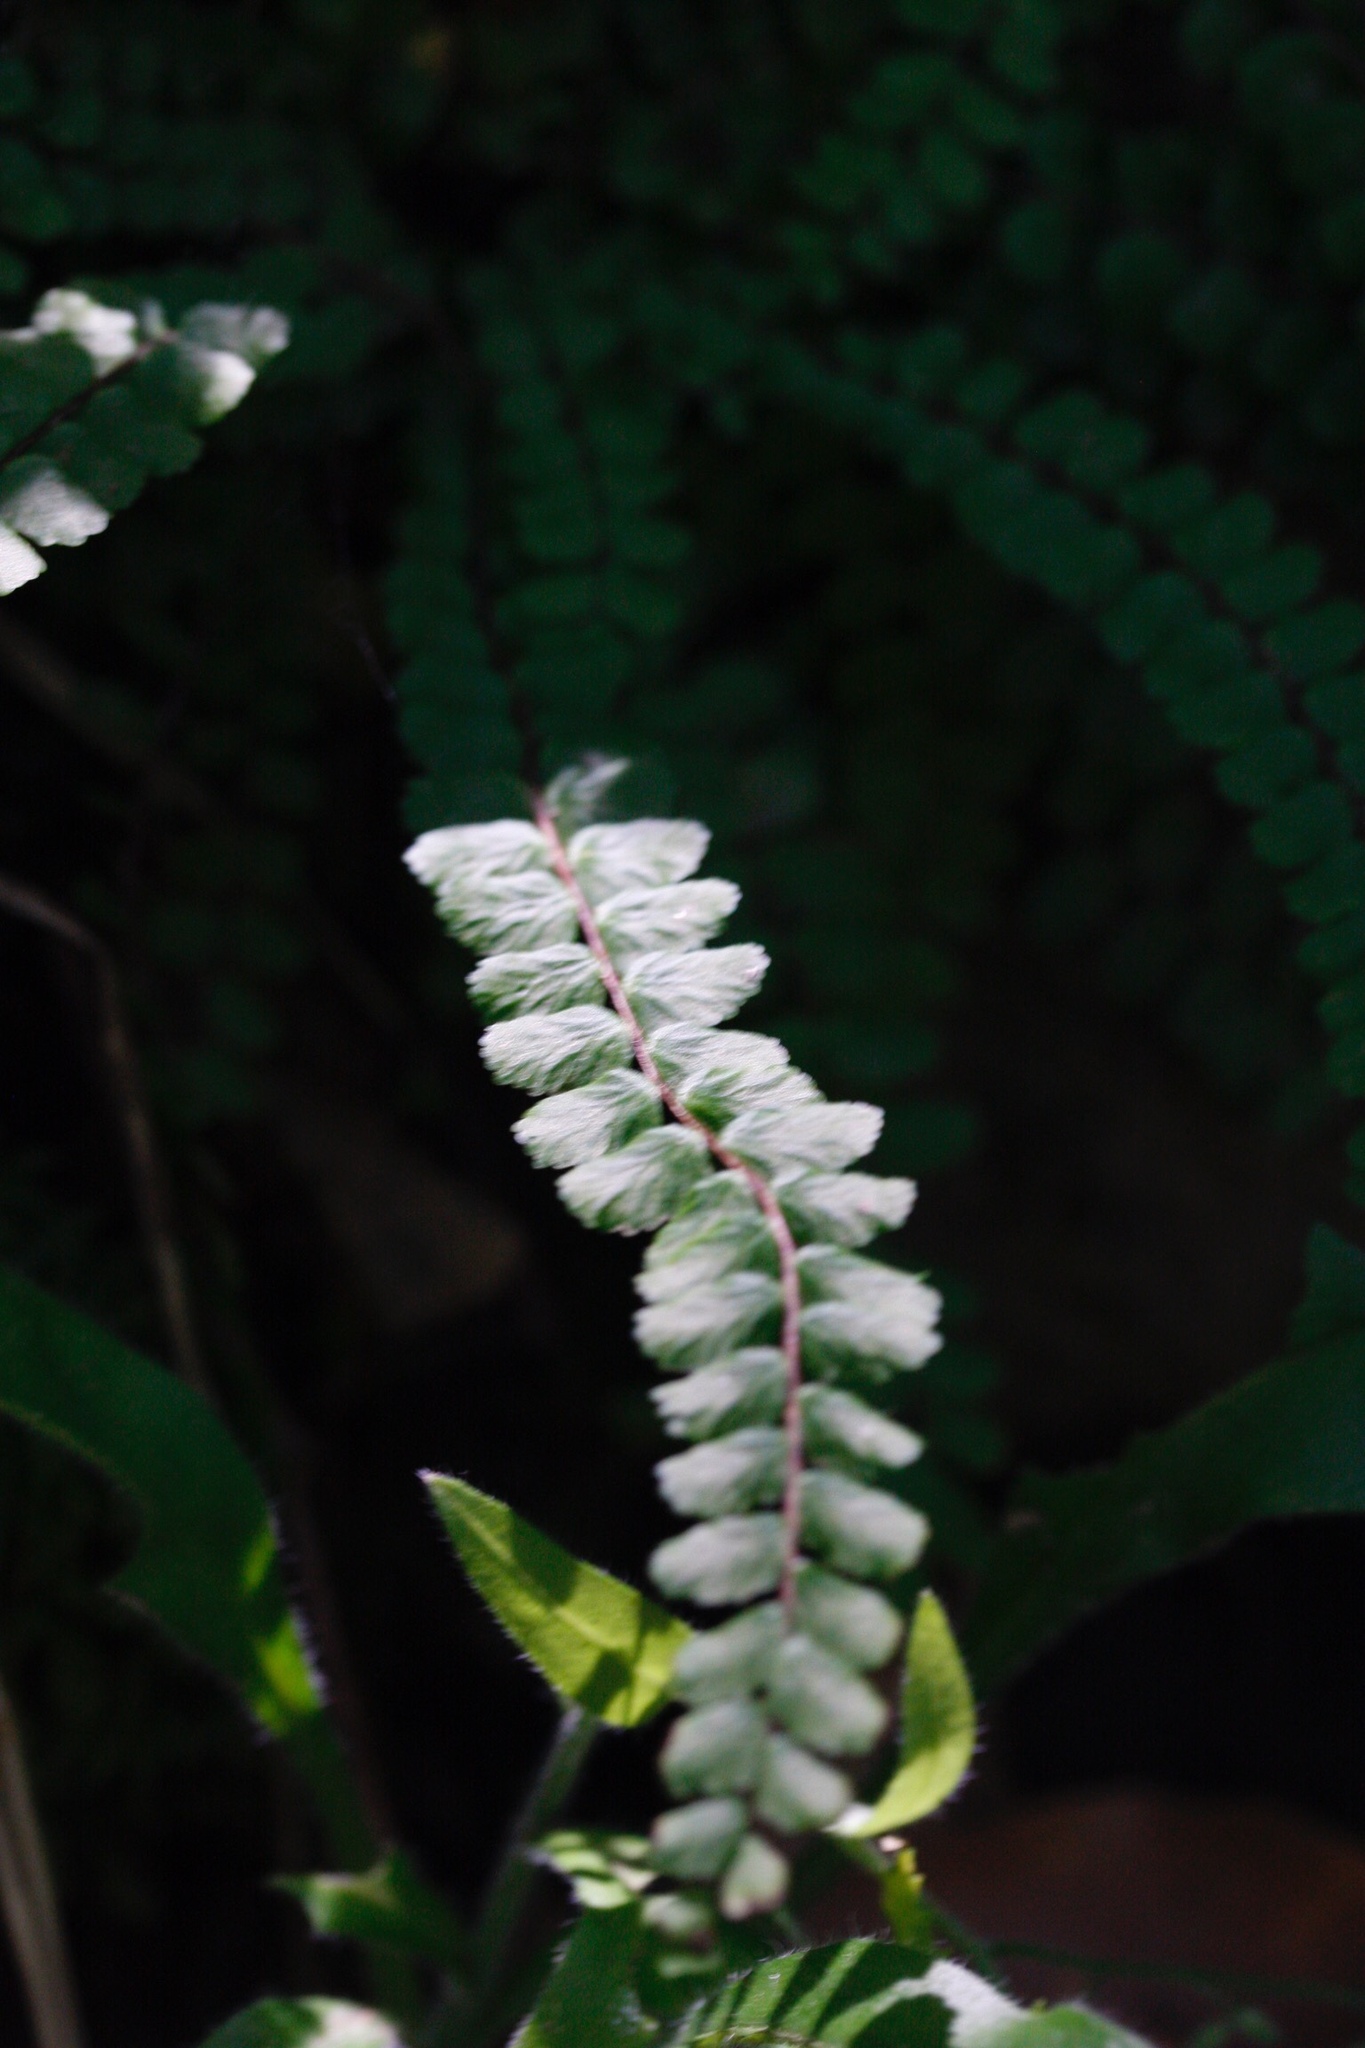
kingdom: Plantae
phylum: Tracheophyta
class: Polypodiopsida
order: Polypodiales
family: Aspleniaceae
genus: Asplenium
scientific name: Asplenium trichomanes
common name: Maidenhair spleenwort
